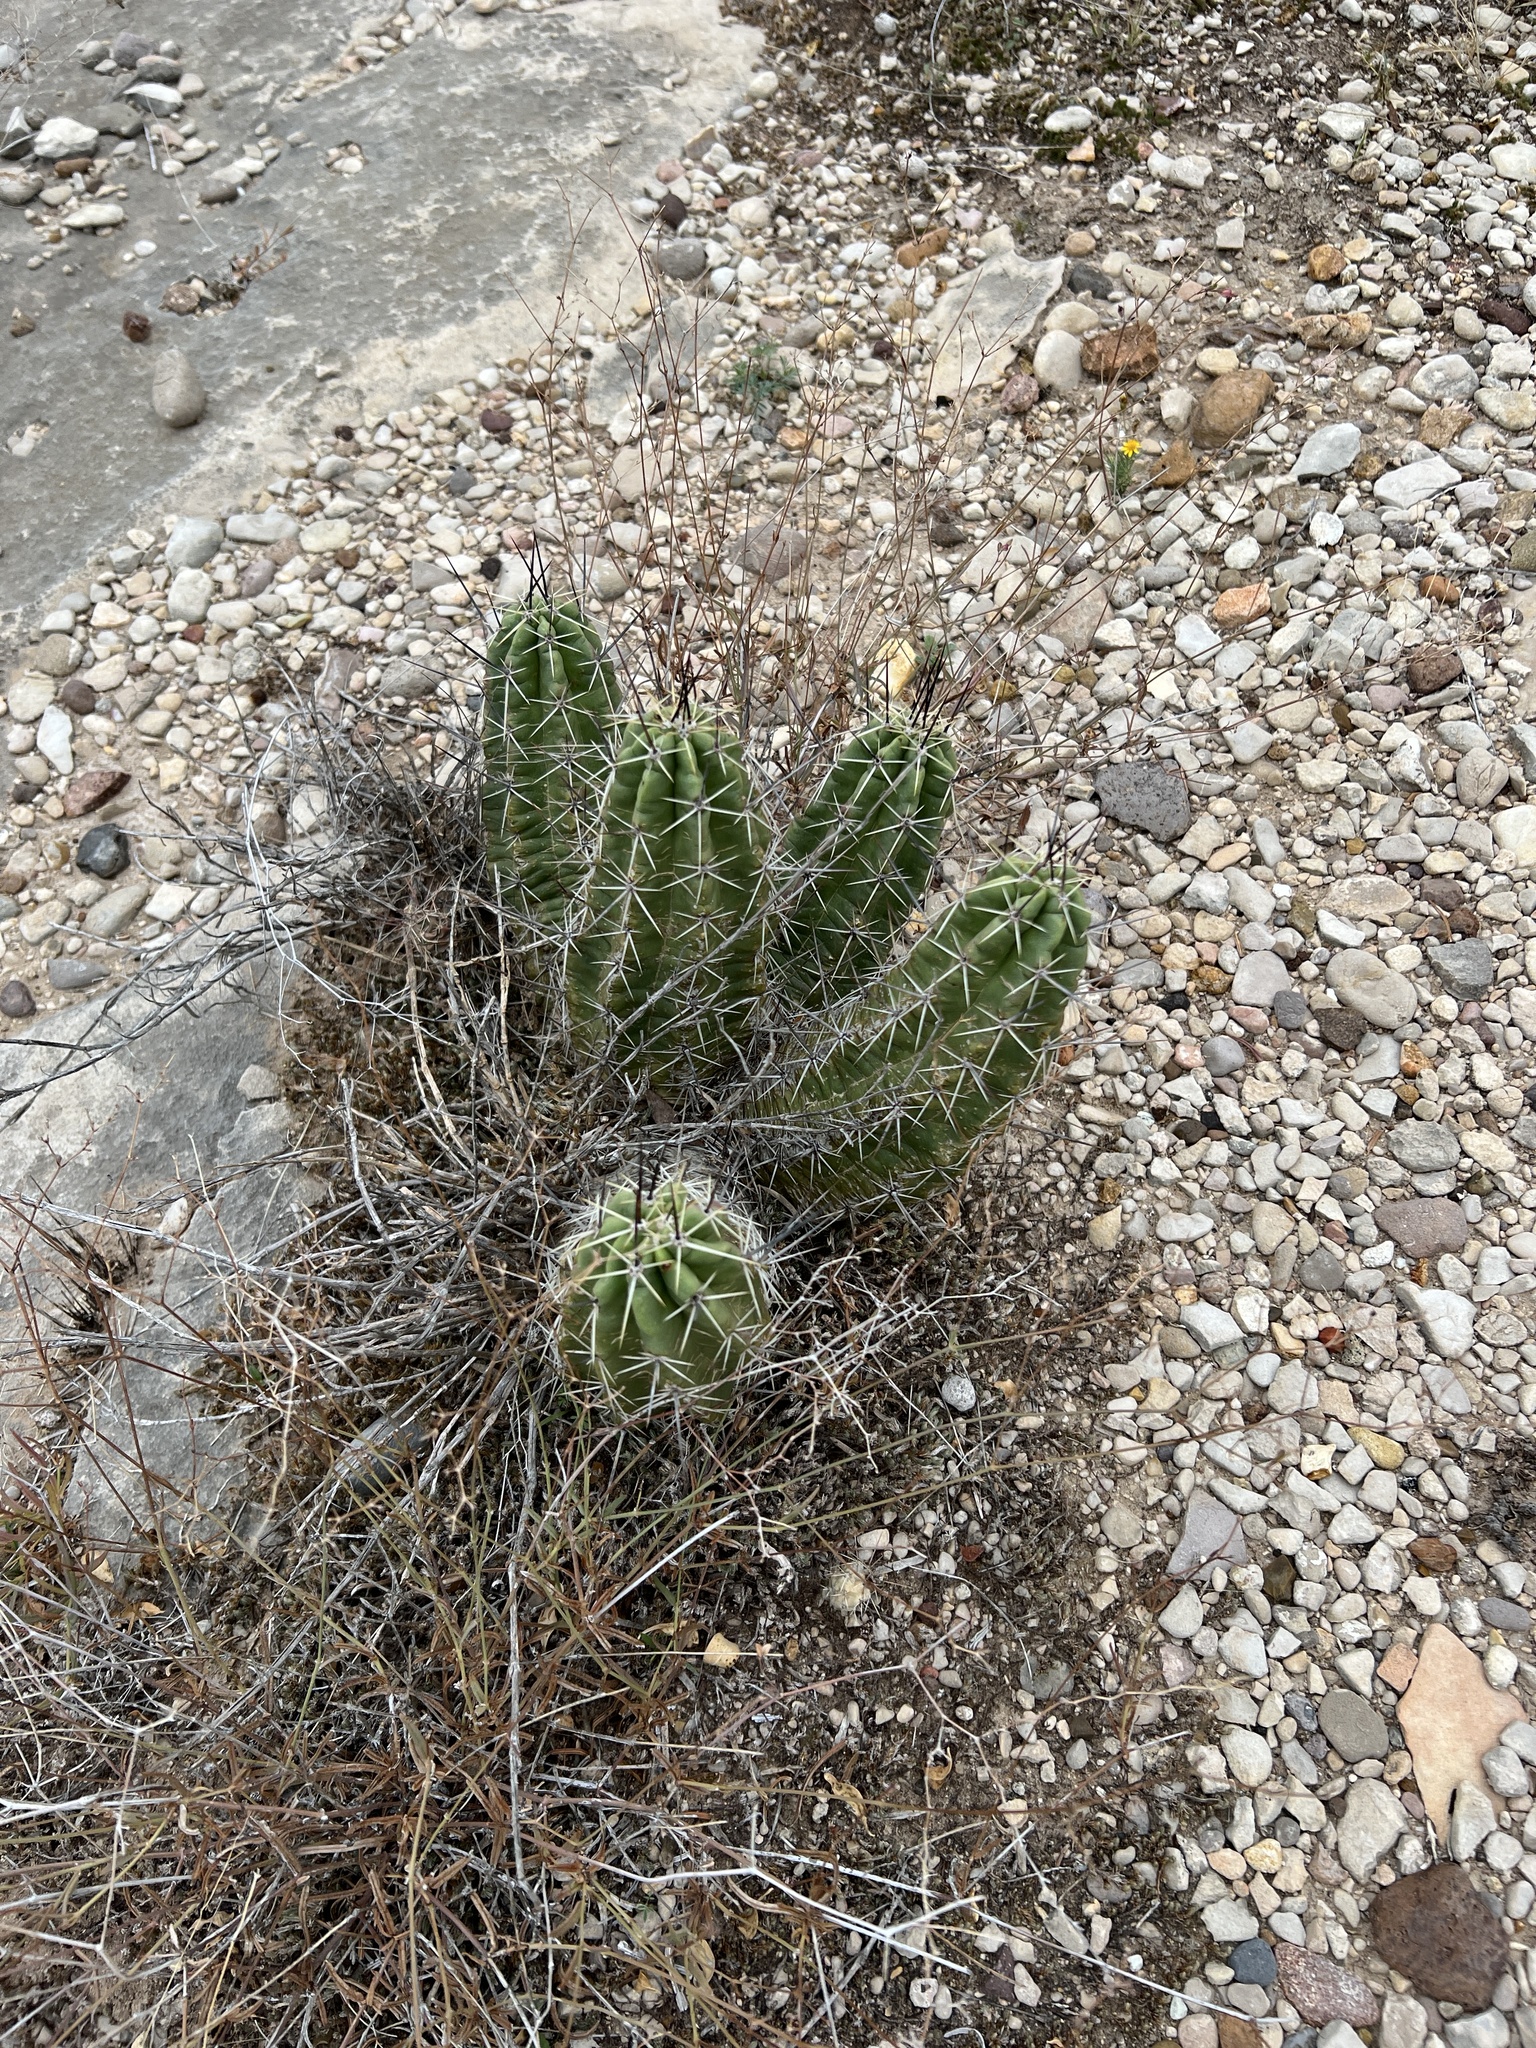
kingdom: Plantae
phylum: Tracheophyta
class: Magnoliopsida
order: Caryophyllales
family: Cactaceae
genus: Echinocereus
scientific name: Echinocereus enneacanthus
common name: Pitaya
